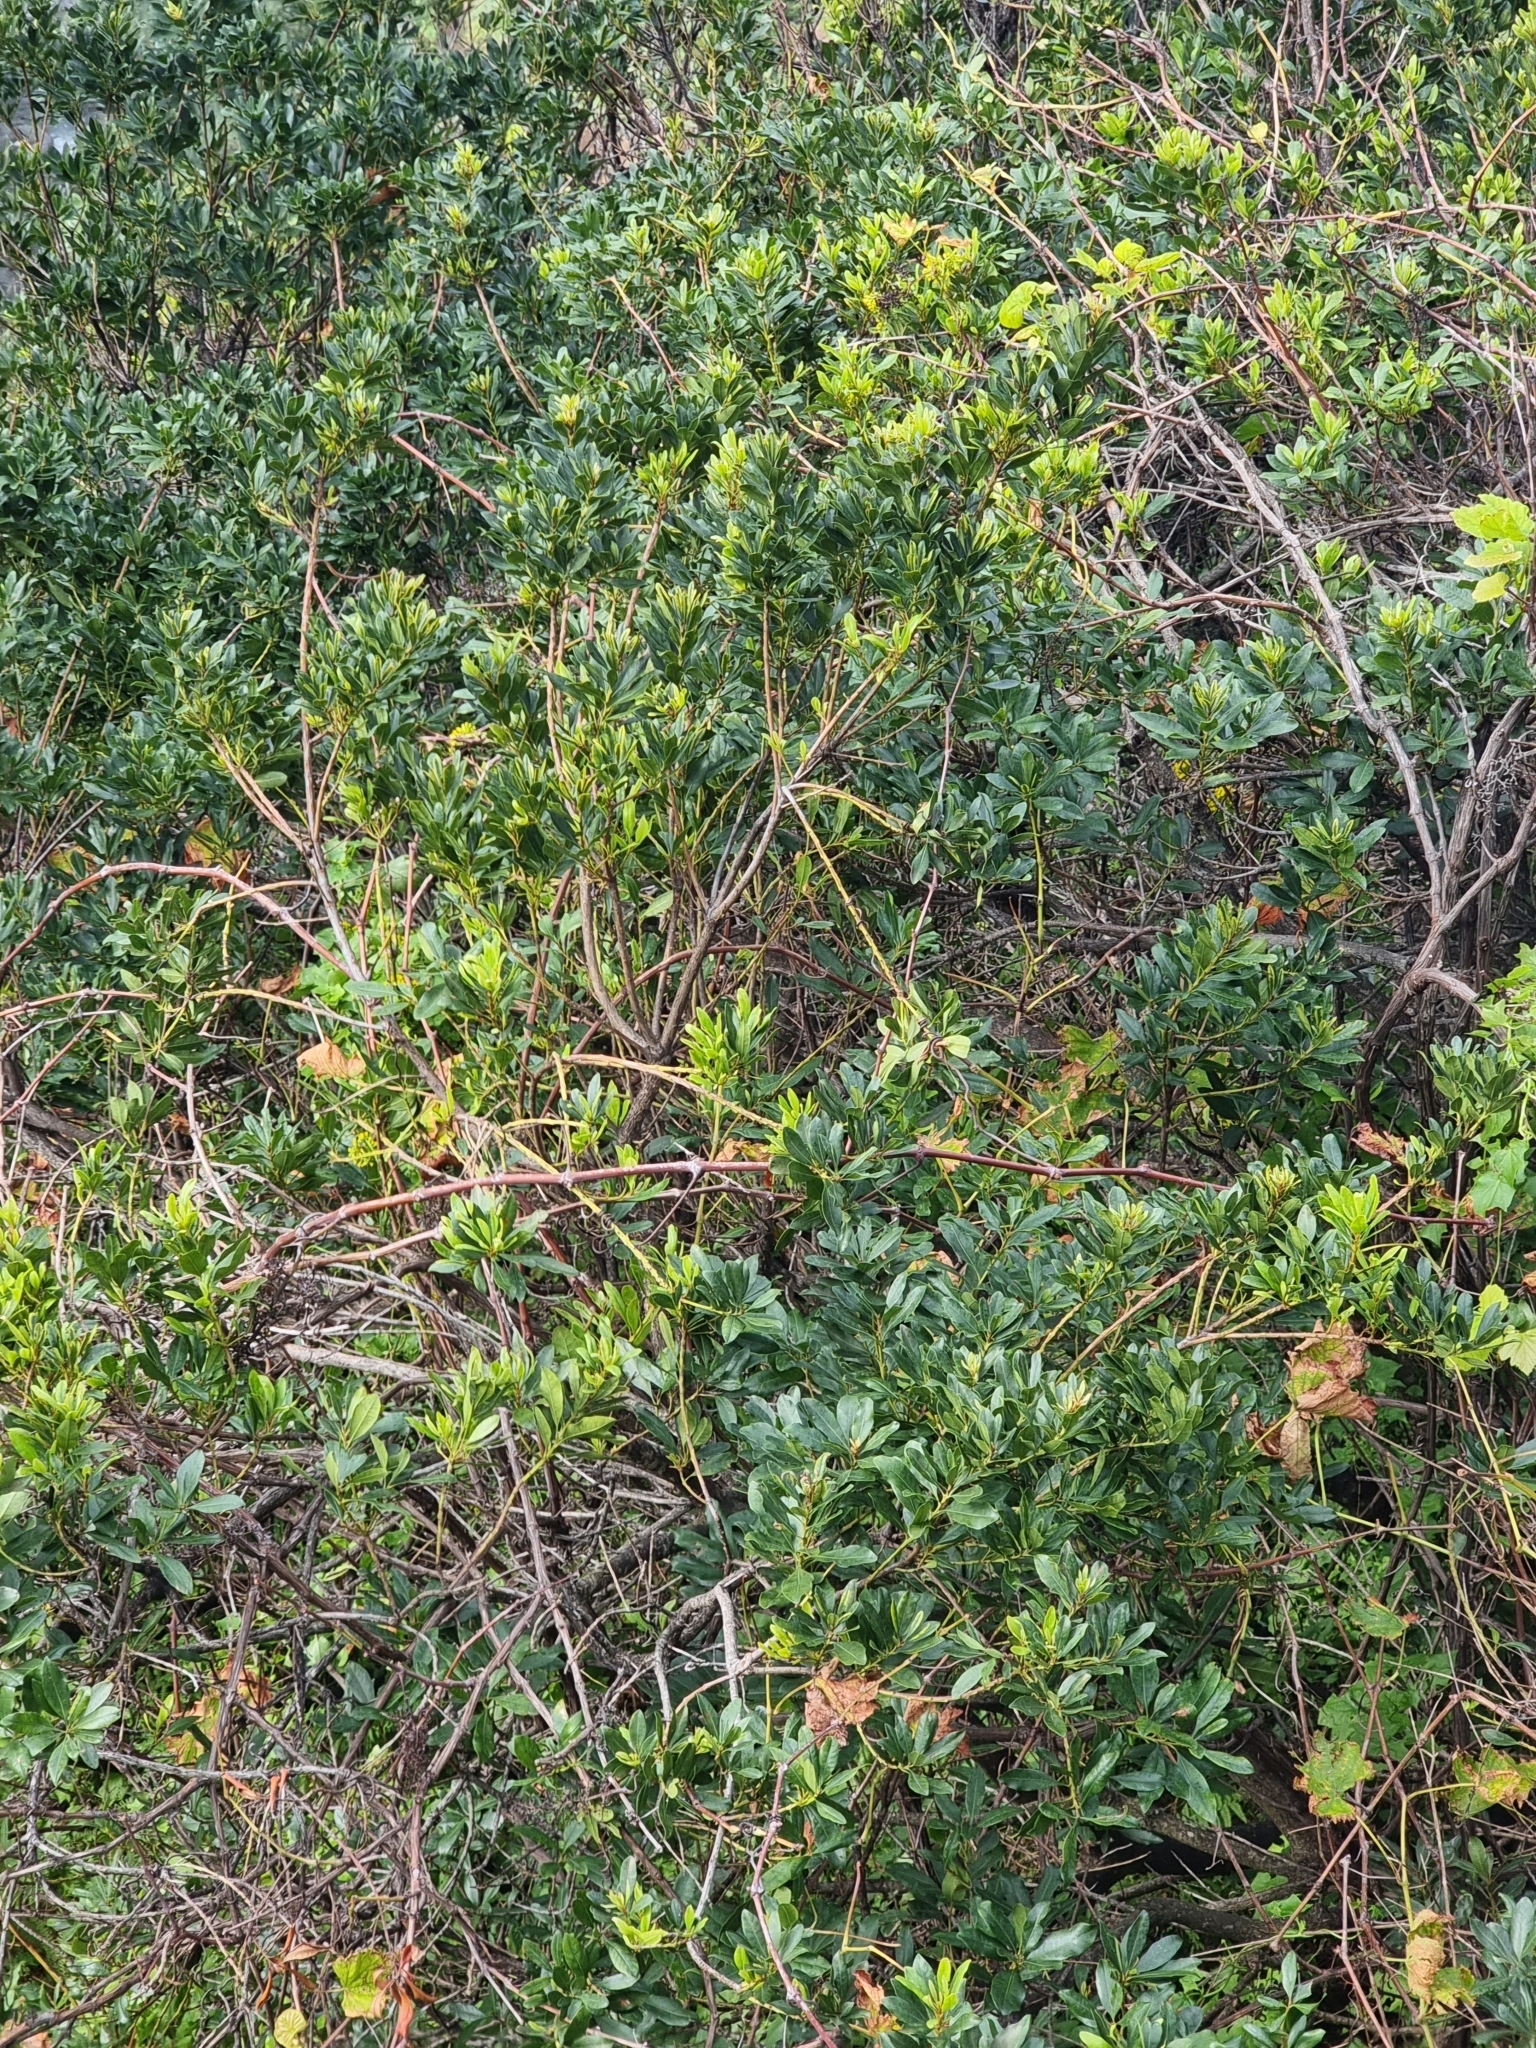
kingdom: Plantae
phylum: Tracheophyta
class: Magnoliopsida
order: Fagales
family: Myricaceae
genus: Morella
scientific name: Morella faya
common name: Firetree
